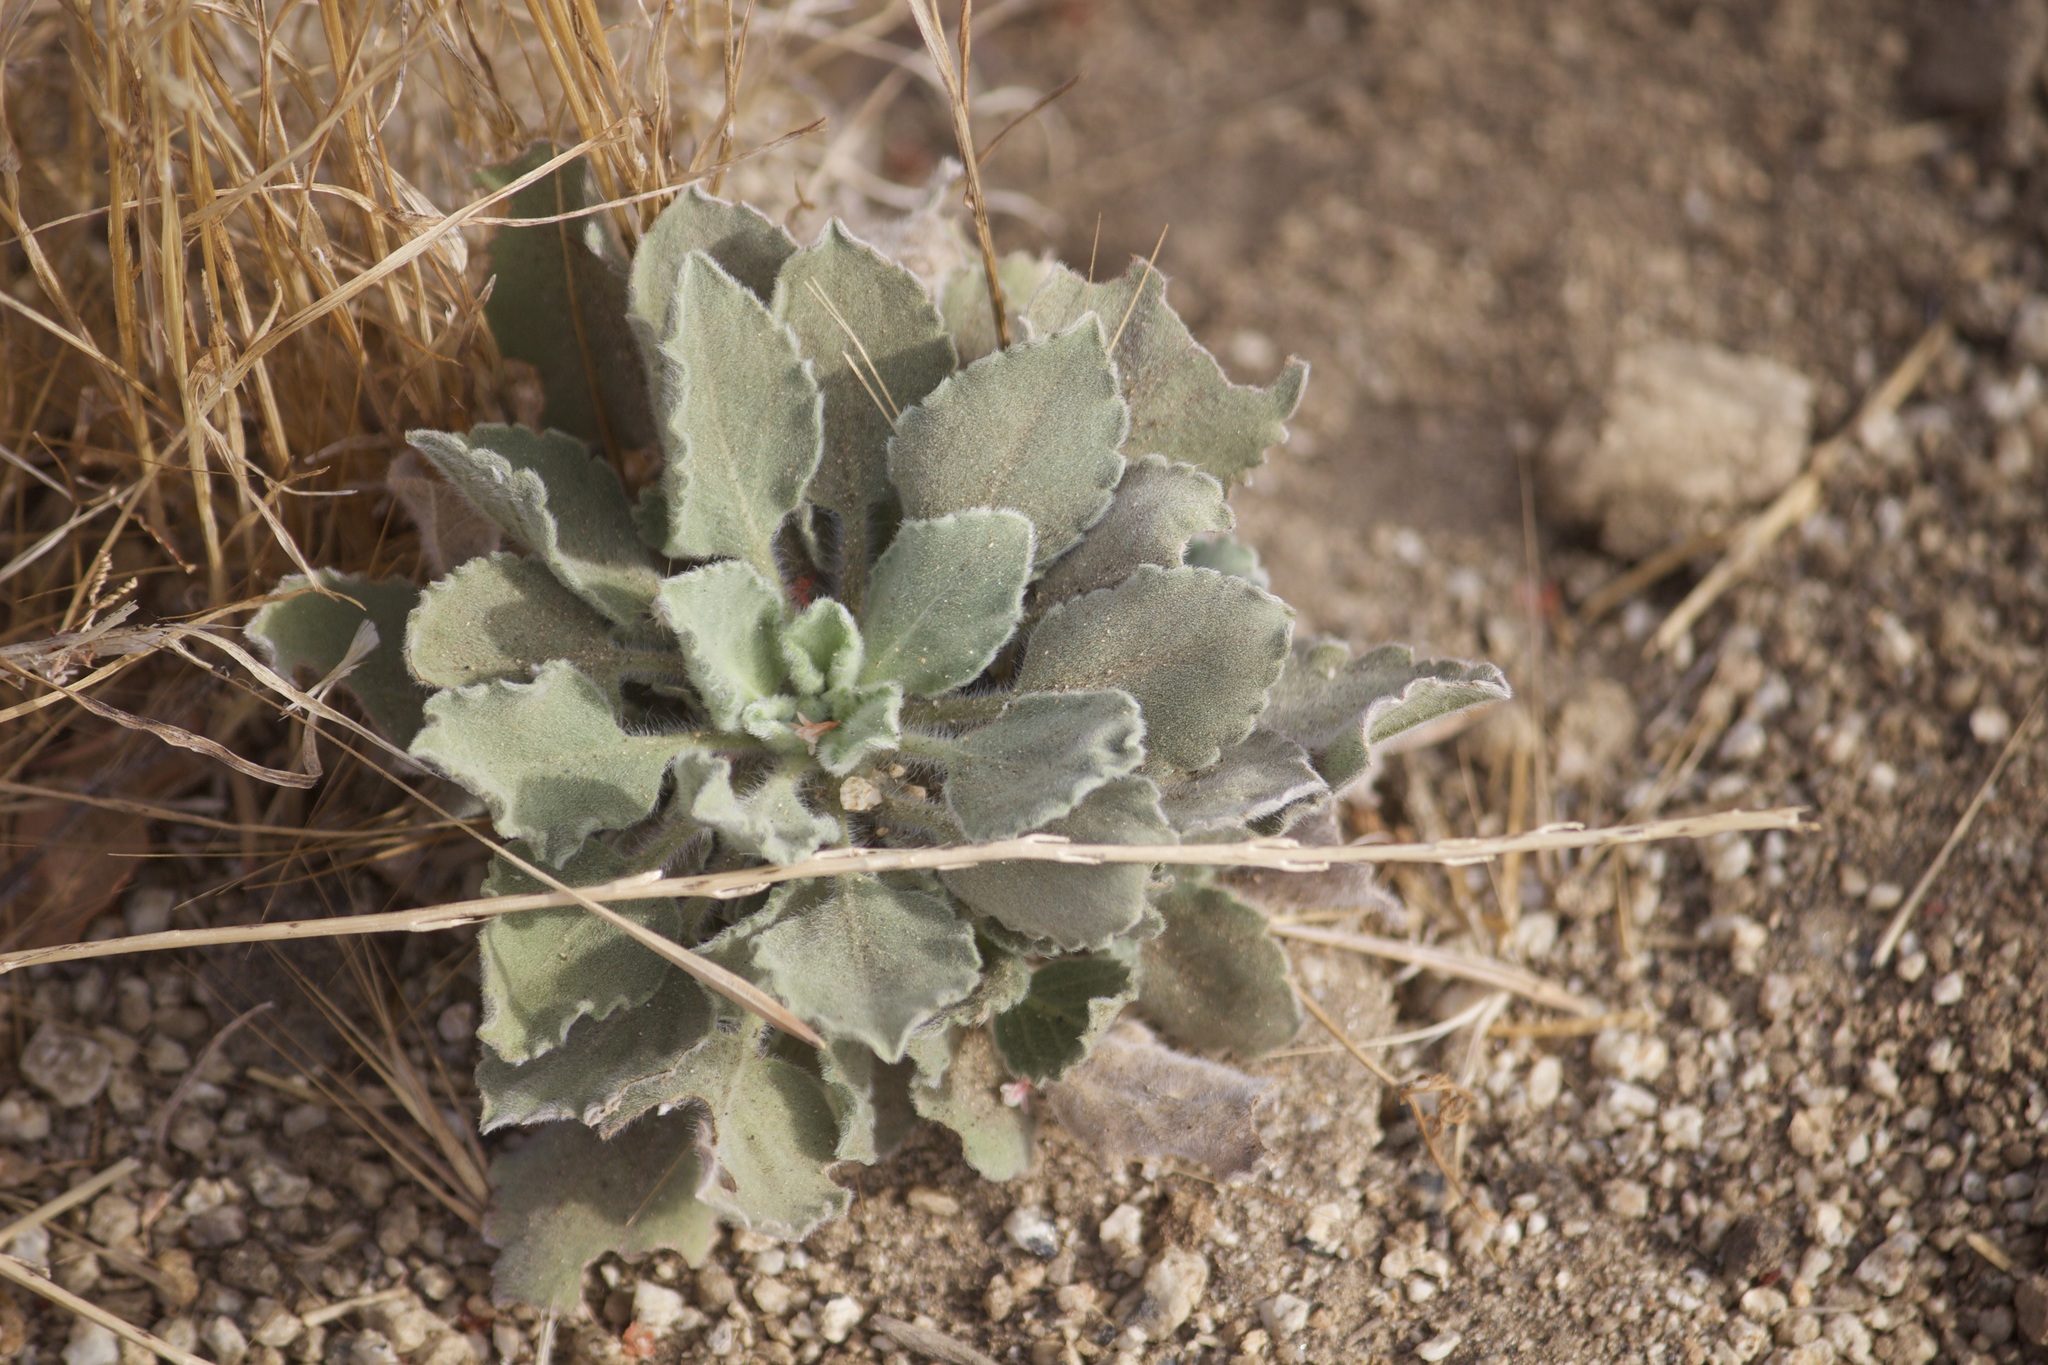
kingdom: Plantae
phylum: Tracheophyta
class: Magnoliopsida
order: Asterales
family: Asteraceae
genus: Heterotheca
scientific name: Heterotheca grandiflora
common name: Telegraphweed
